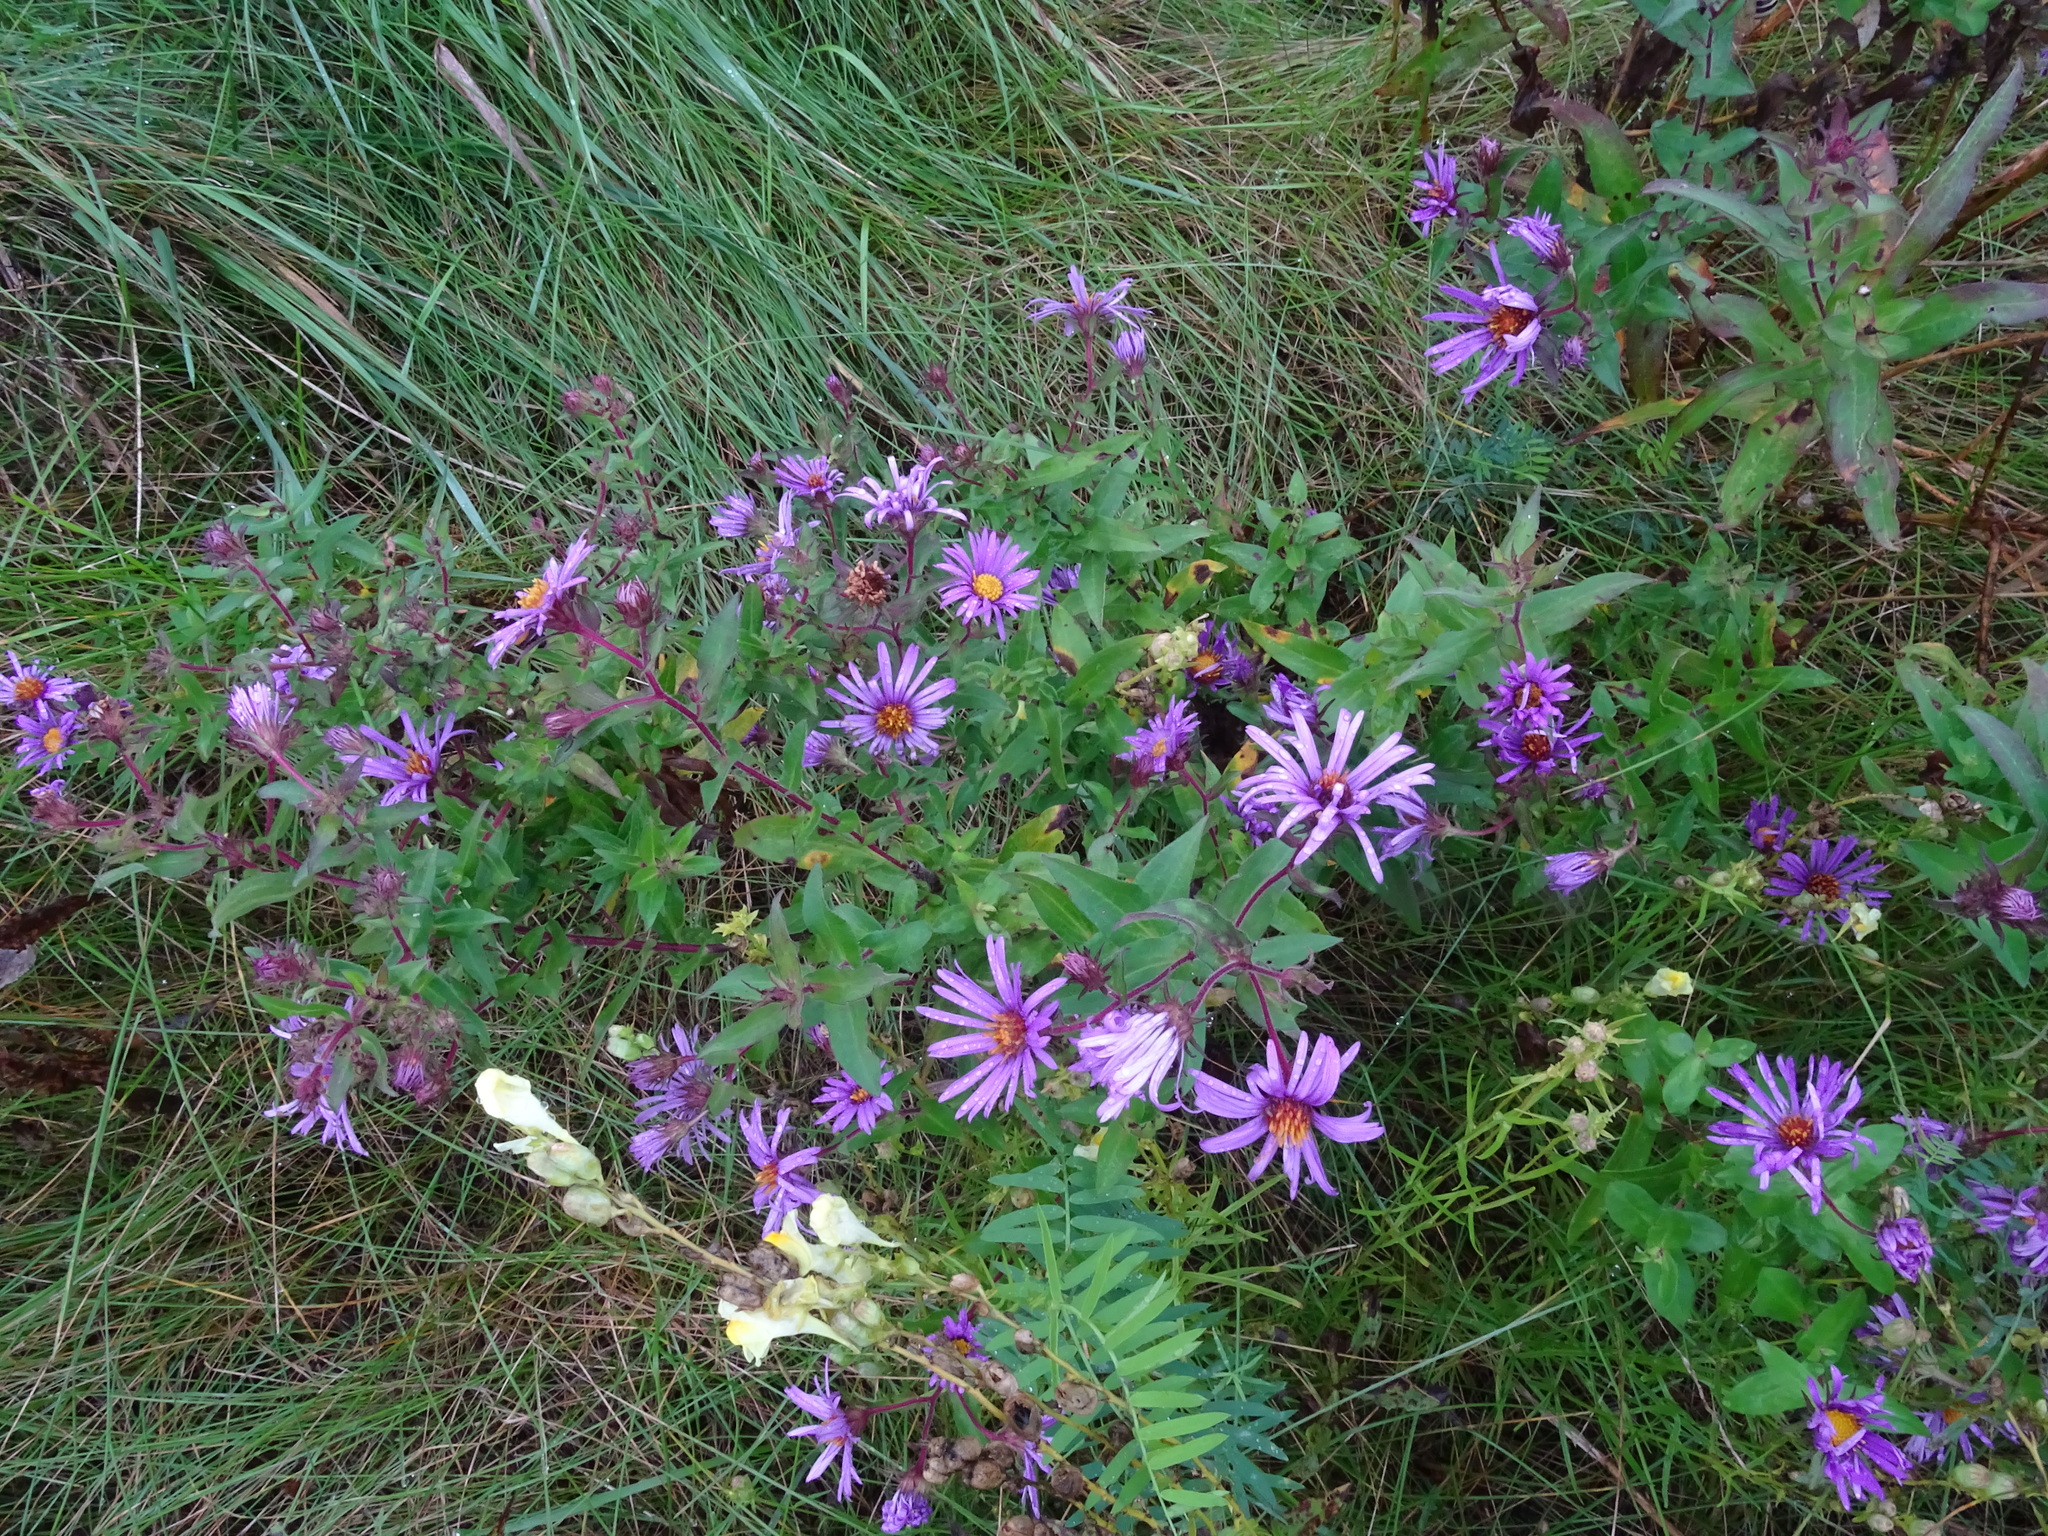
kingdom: Plantae
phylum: Tracheophyta
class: Magnoliopsida
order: Asterales
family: Asteraceae
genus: Symphyotrichum
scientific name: Symphyotrichum novae-angliae
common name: Michaelmas daisy
